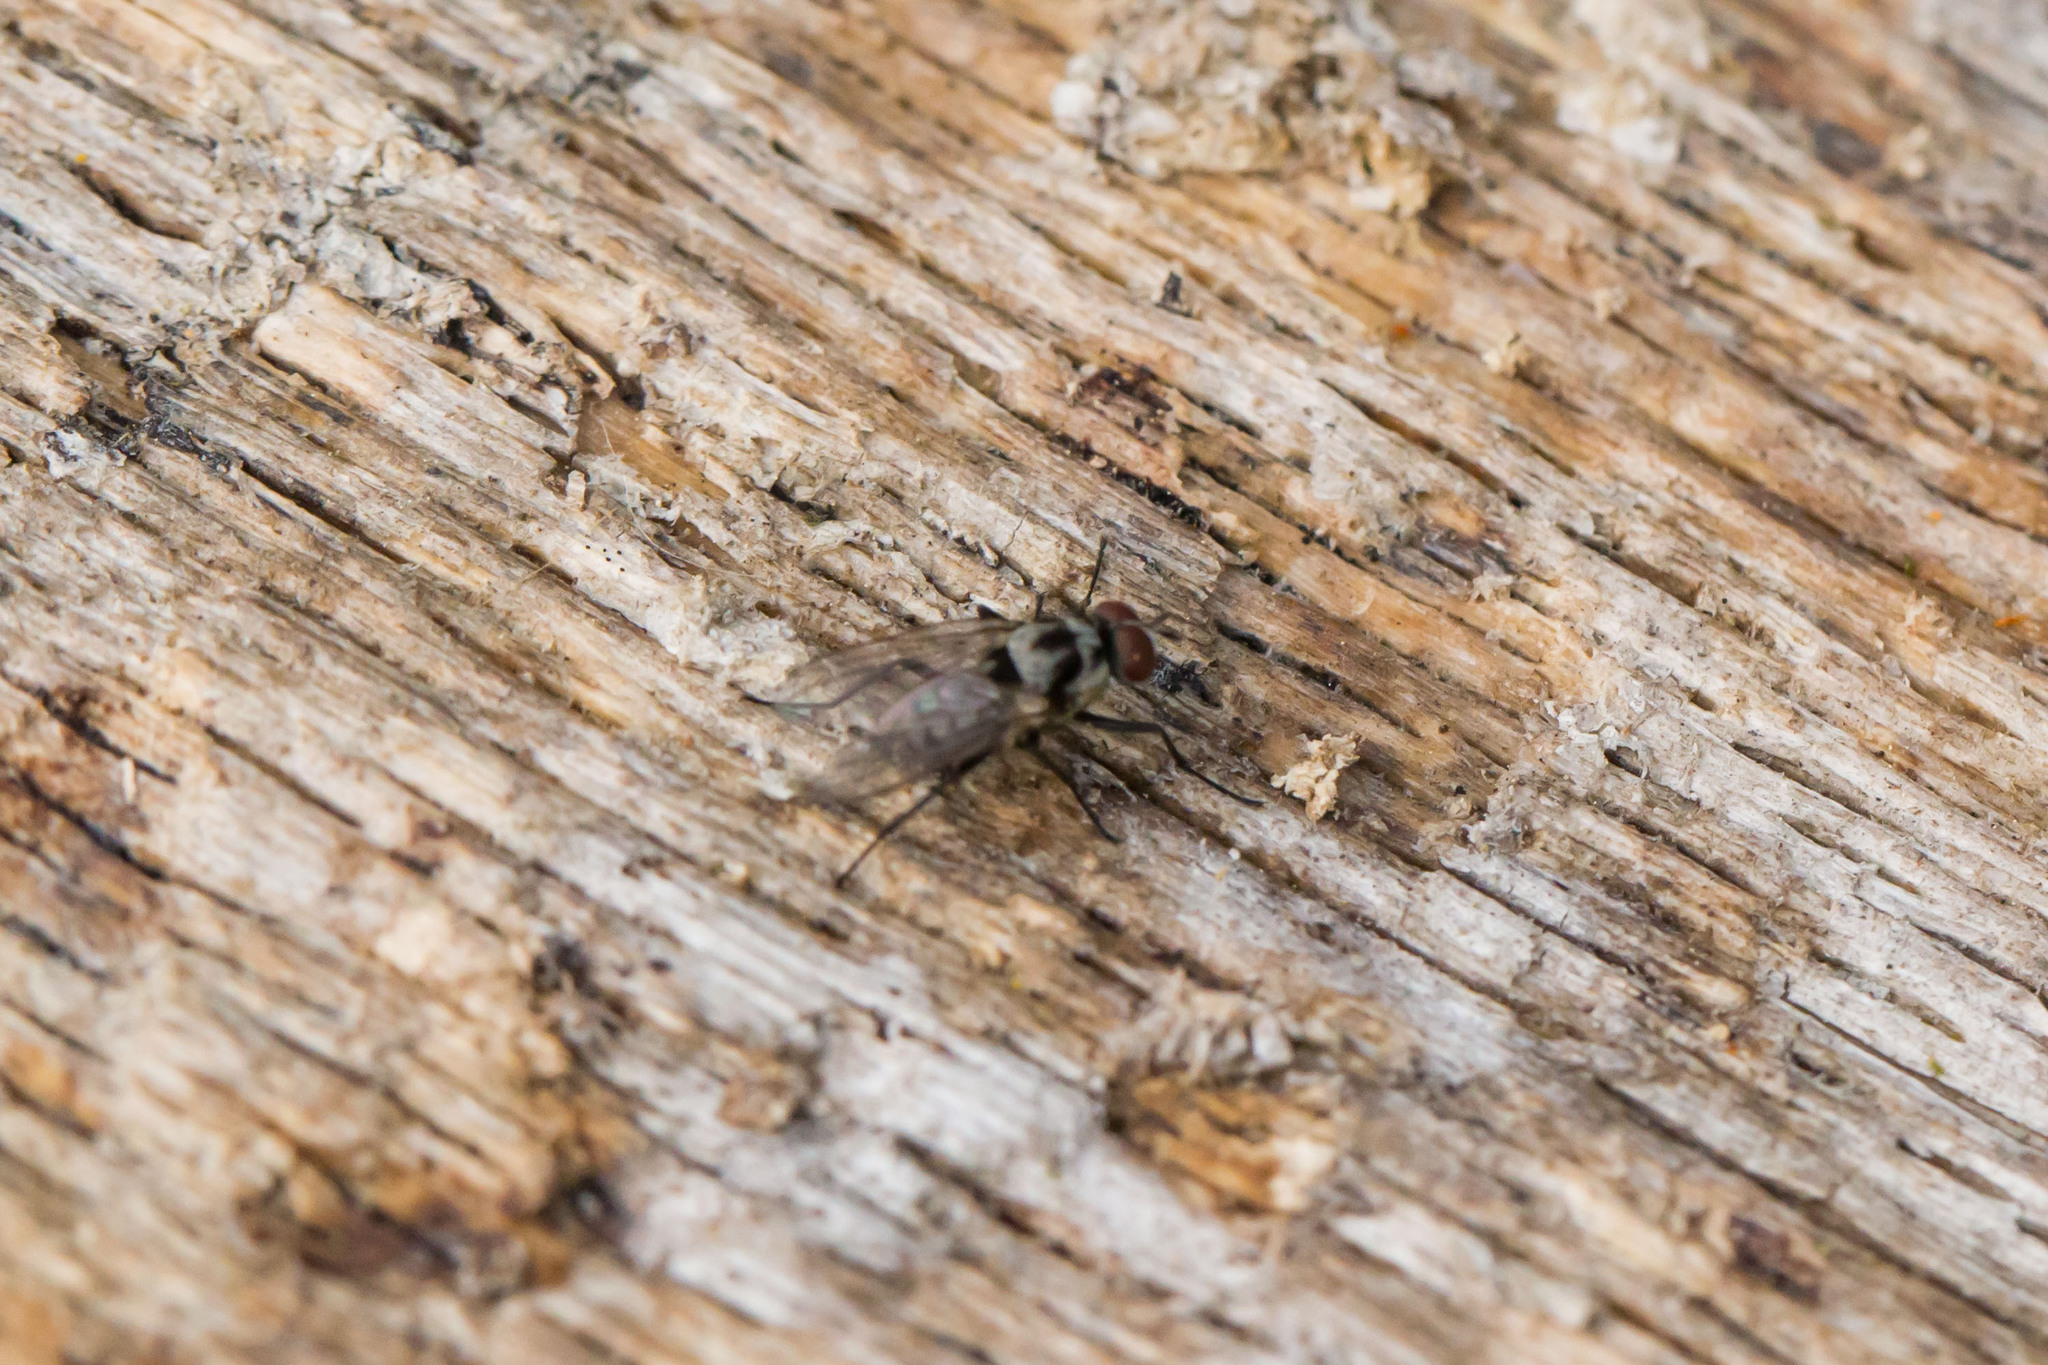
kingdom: Animalia
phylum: Arthropoda
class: Insecta
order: Diptera
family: Anthomyiidae
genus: Anthomyia
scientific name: Anthomyia procellaris
